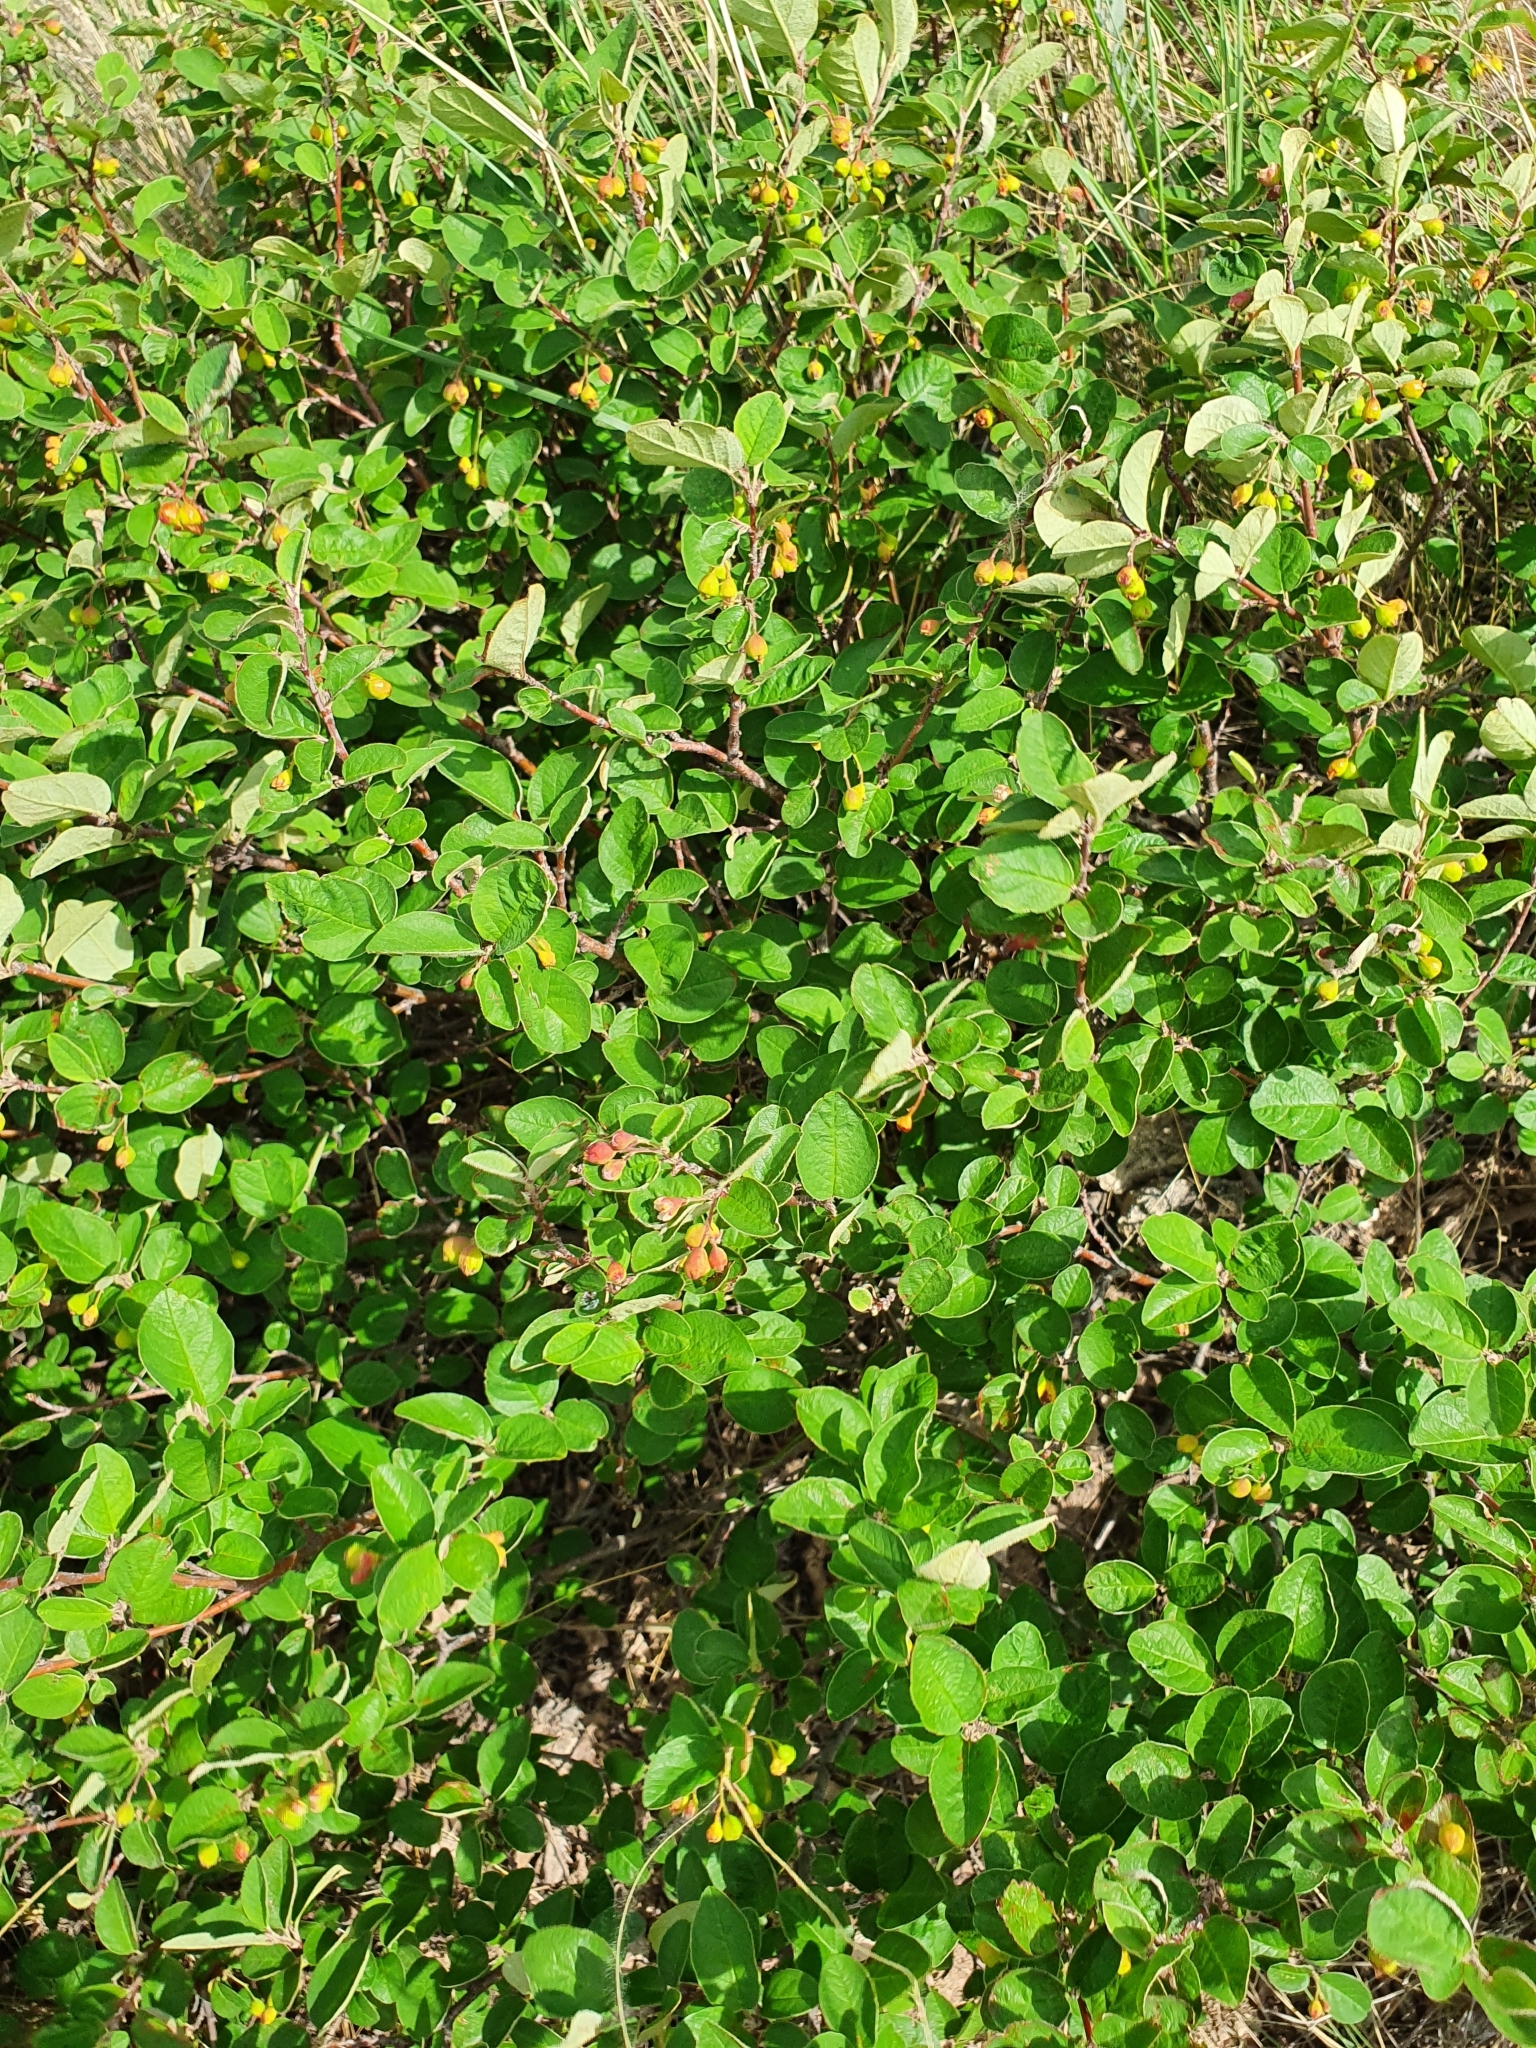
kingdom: Plantae
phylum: Tracheophyta
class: Magnoliopsida
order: Rosales
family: Rosaceae
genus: Cotoneaster
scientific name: Cotoneaster melanocarpus
